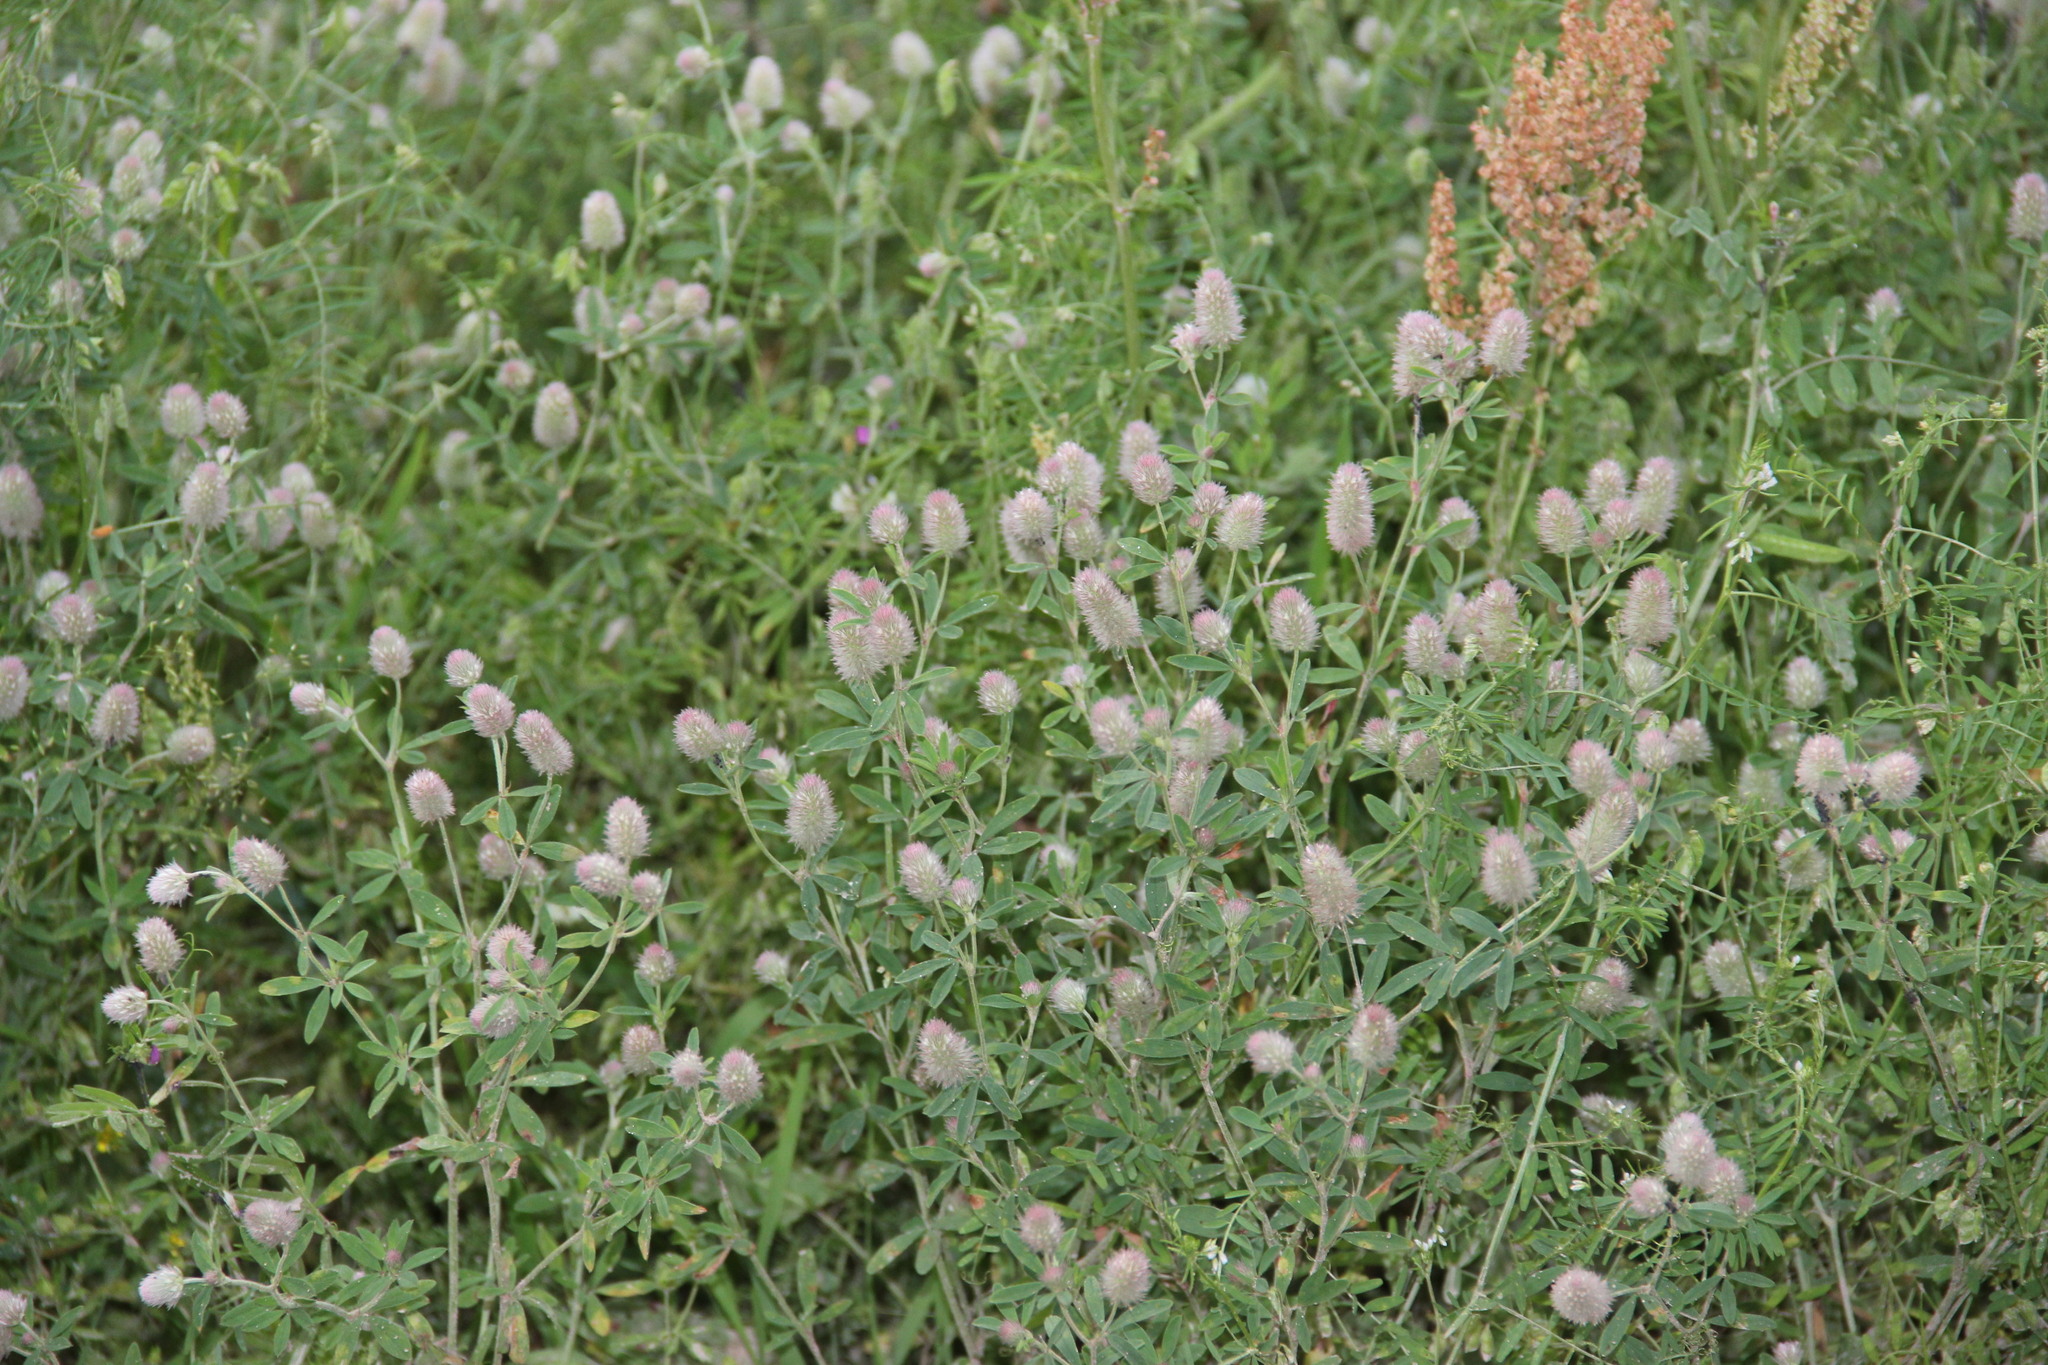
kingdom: Plantae
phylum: Tracheophyta
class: Magnoliopsida
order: Fabales
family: Fabaceae
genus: Trifolium
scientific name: Trifolium arvense
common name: Hare's-foot clover
